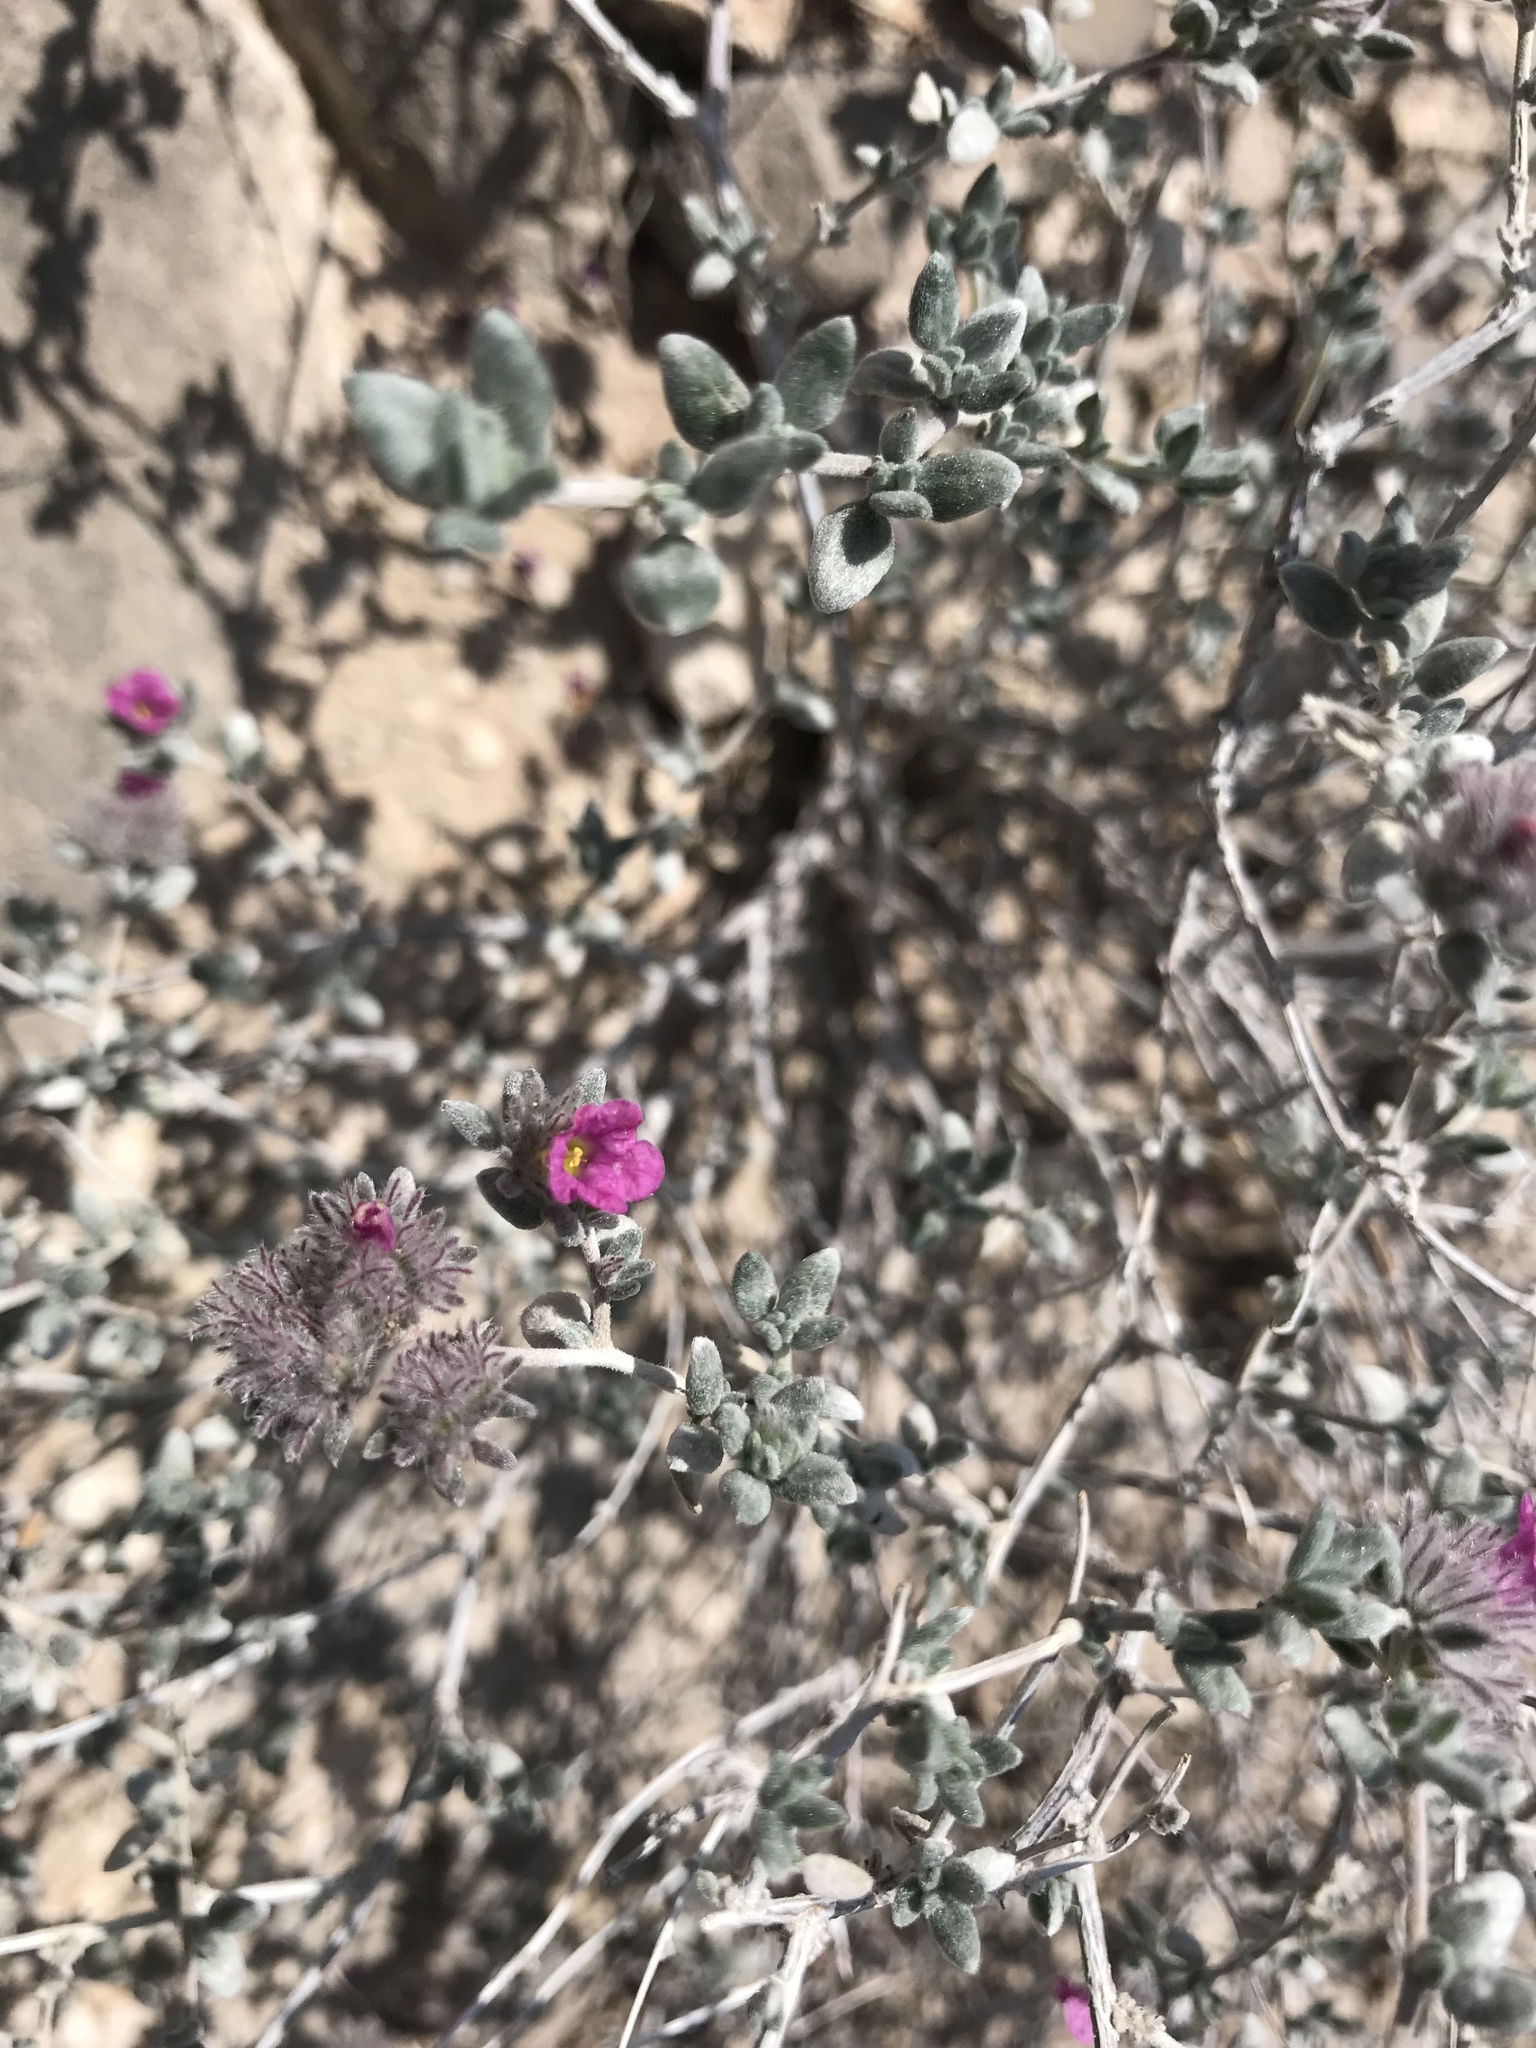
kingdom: Plantae
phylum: Tracheophyta
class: Magnoliopsida
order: Boraginales
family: Ehretiaceae
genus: Tiquilia
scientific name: Tiquilia greggii
